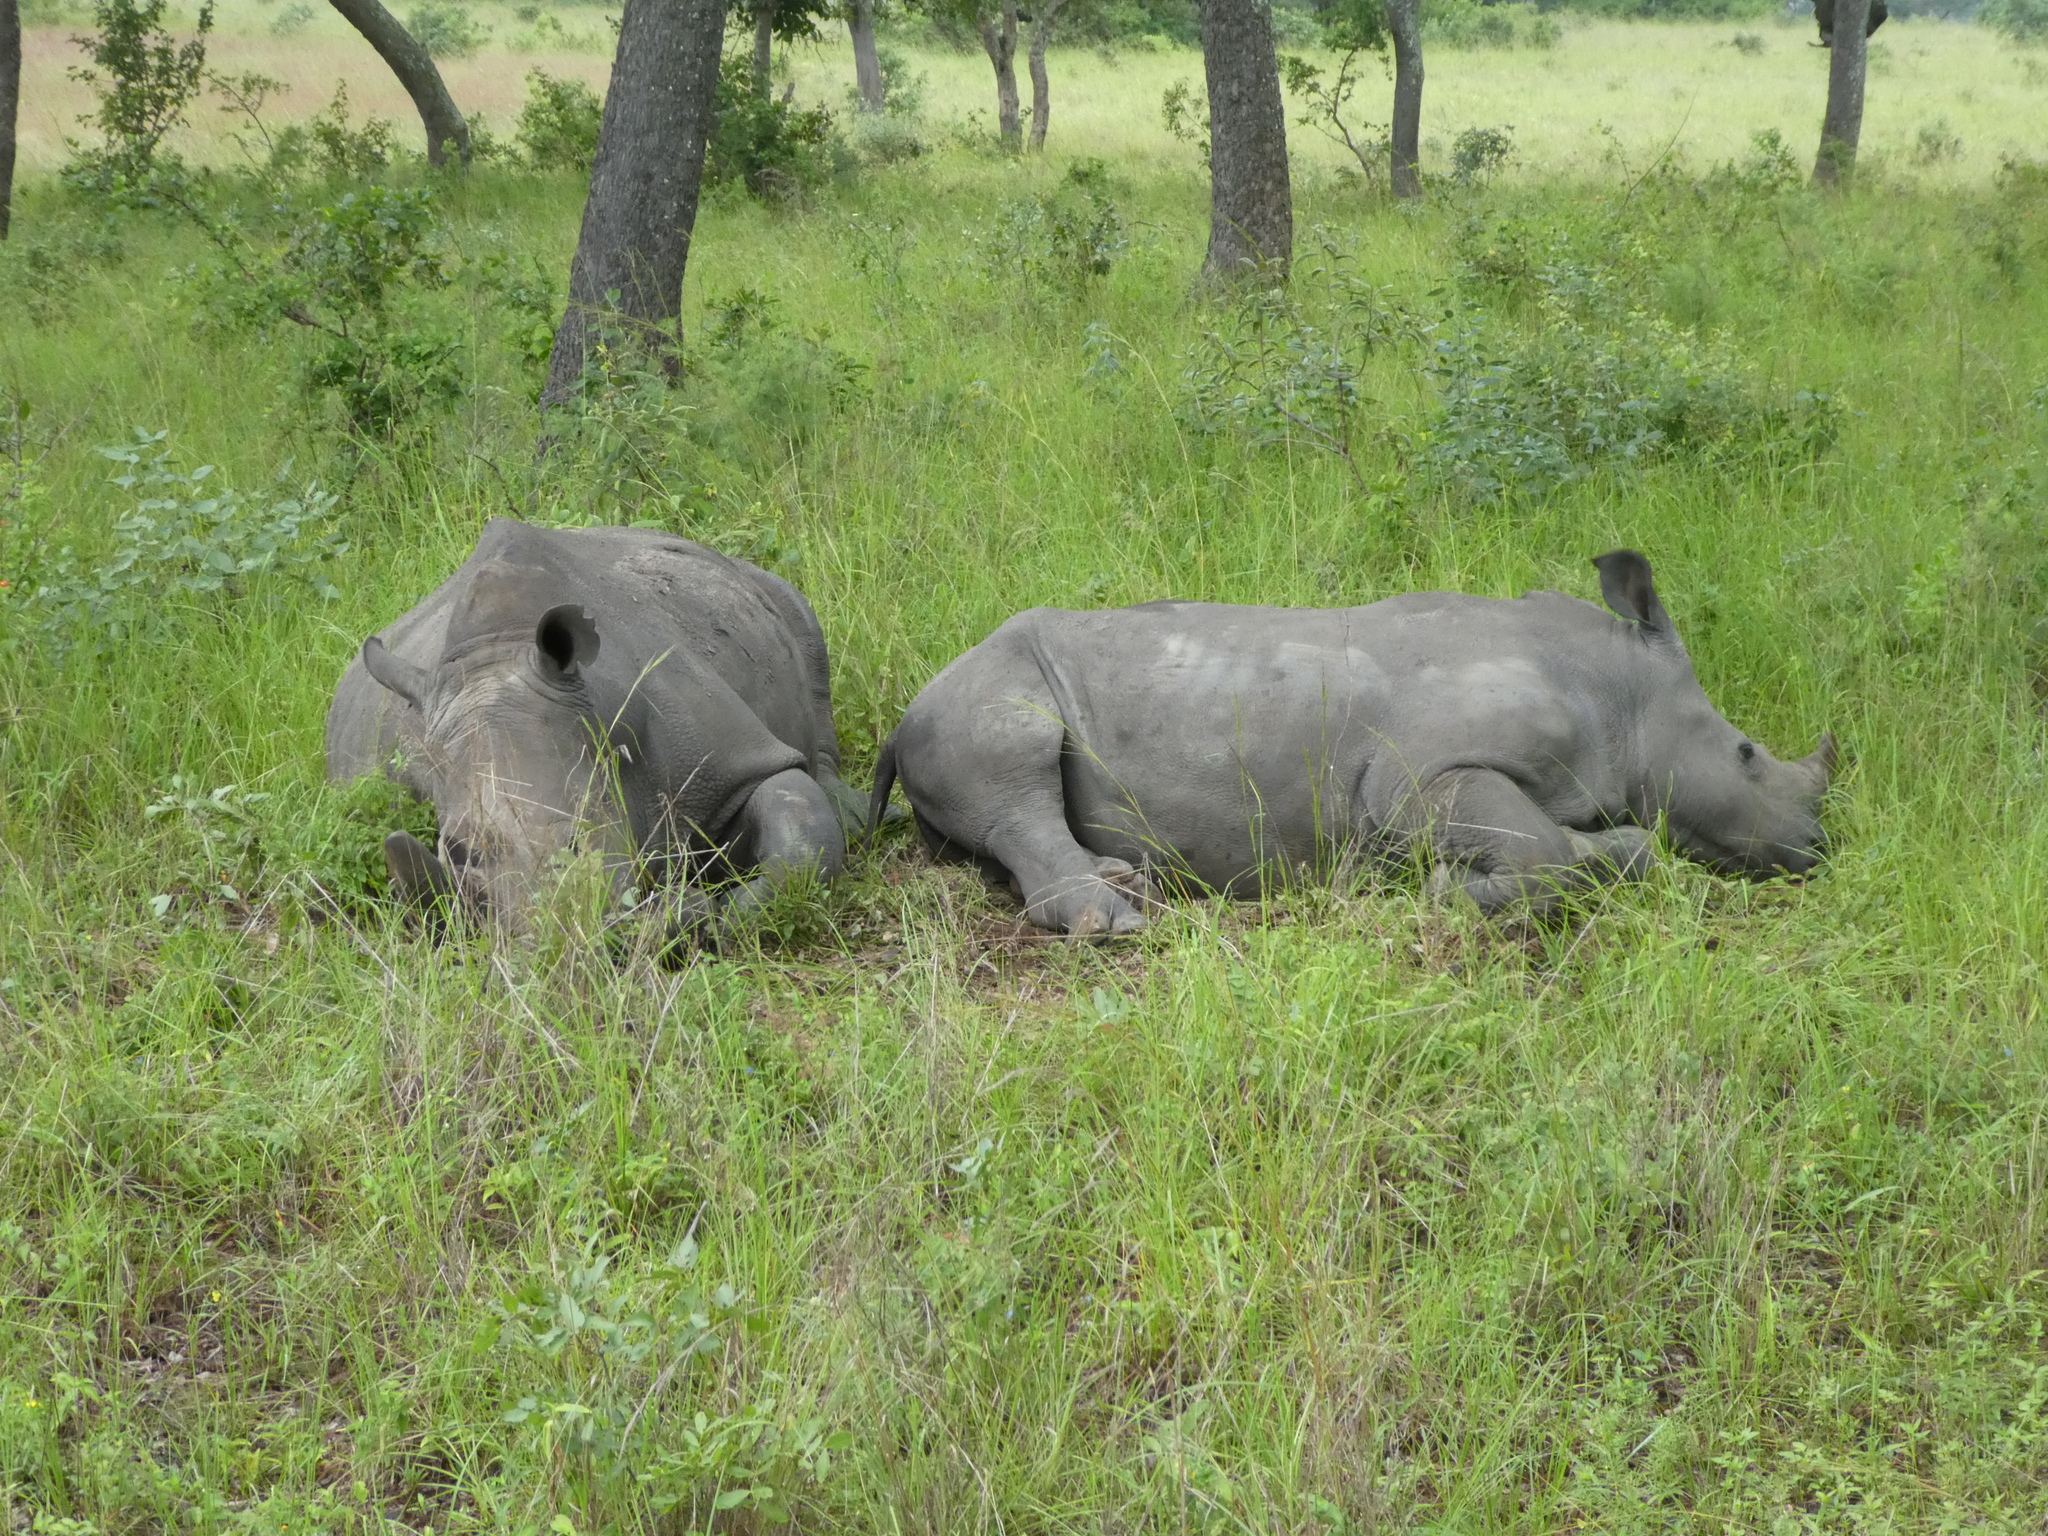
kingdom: Animalia
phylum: Chordata
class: Mammalia
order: Perissodactyla
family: Rhinocerotidae
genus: Ceratotherium
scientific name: Ceratotherium simum
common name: White rhinoceros
